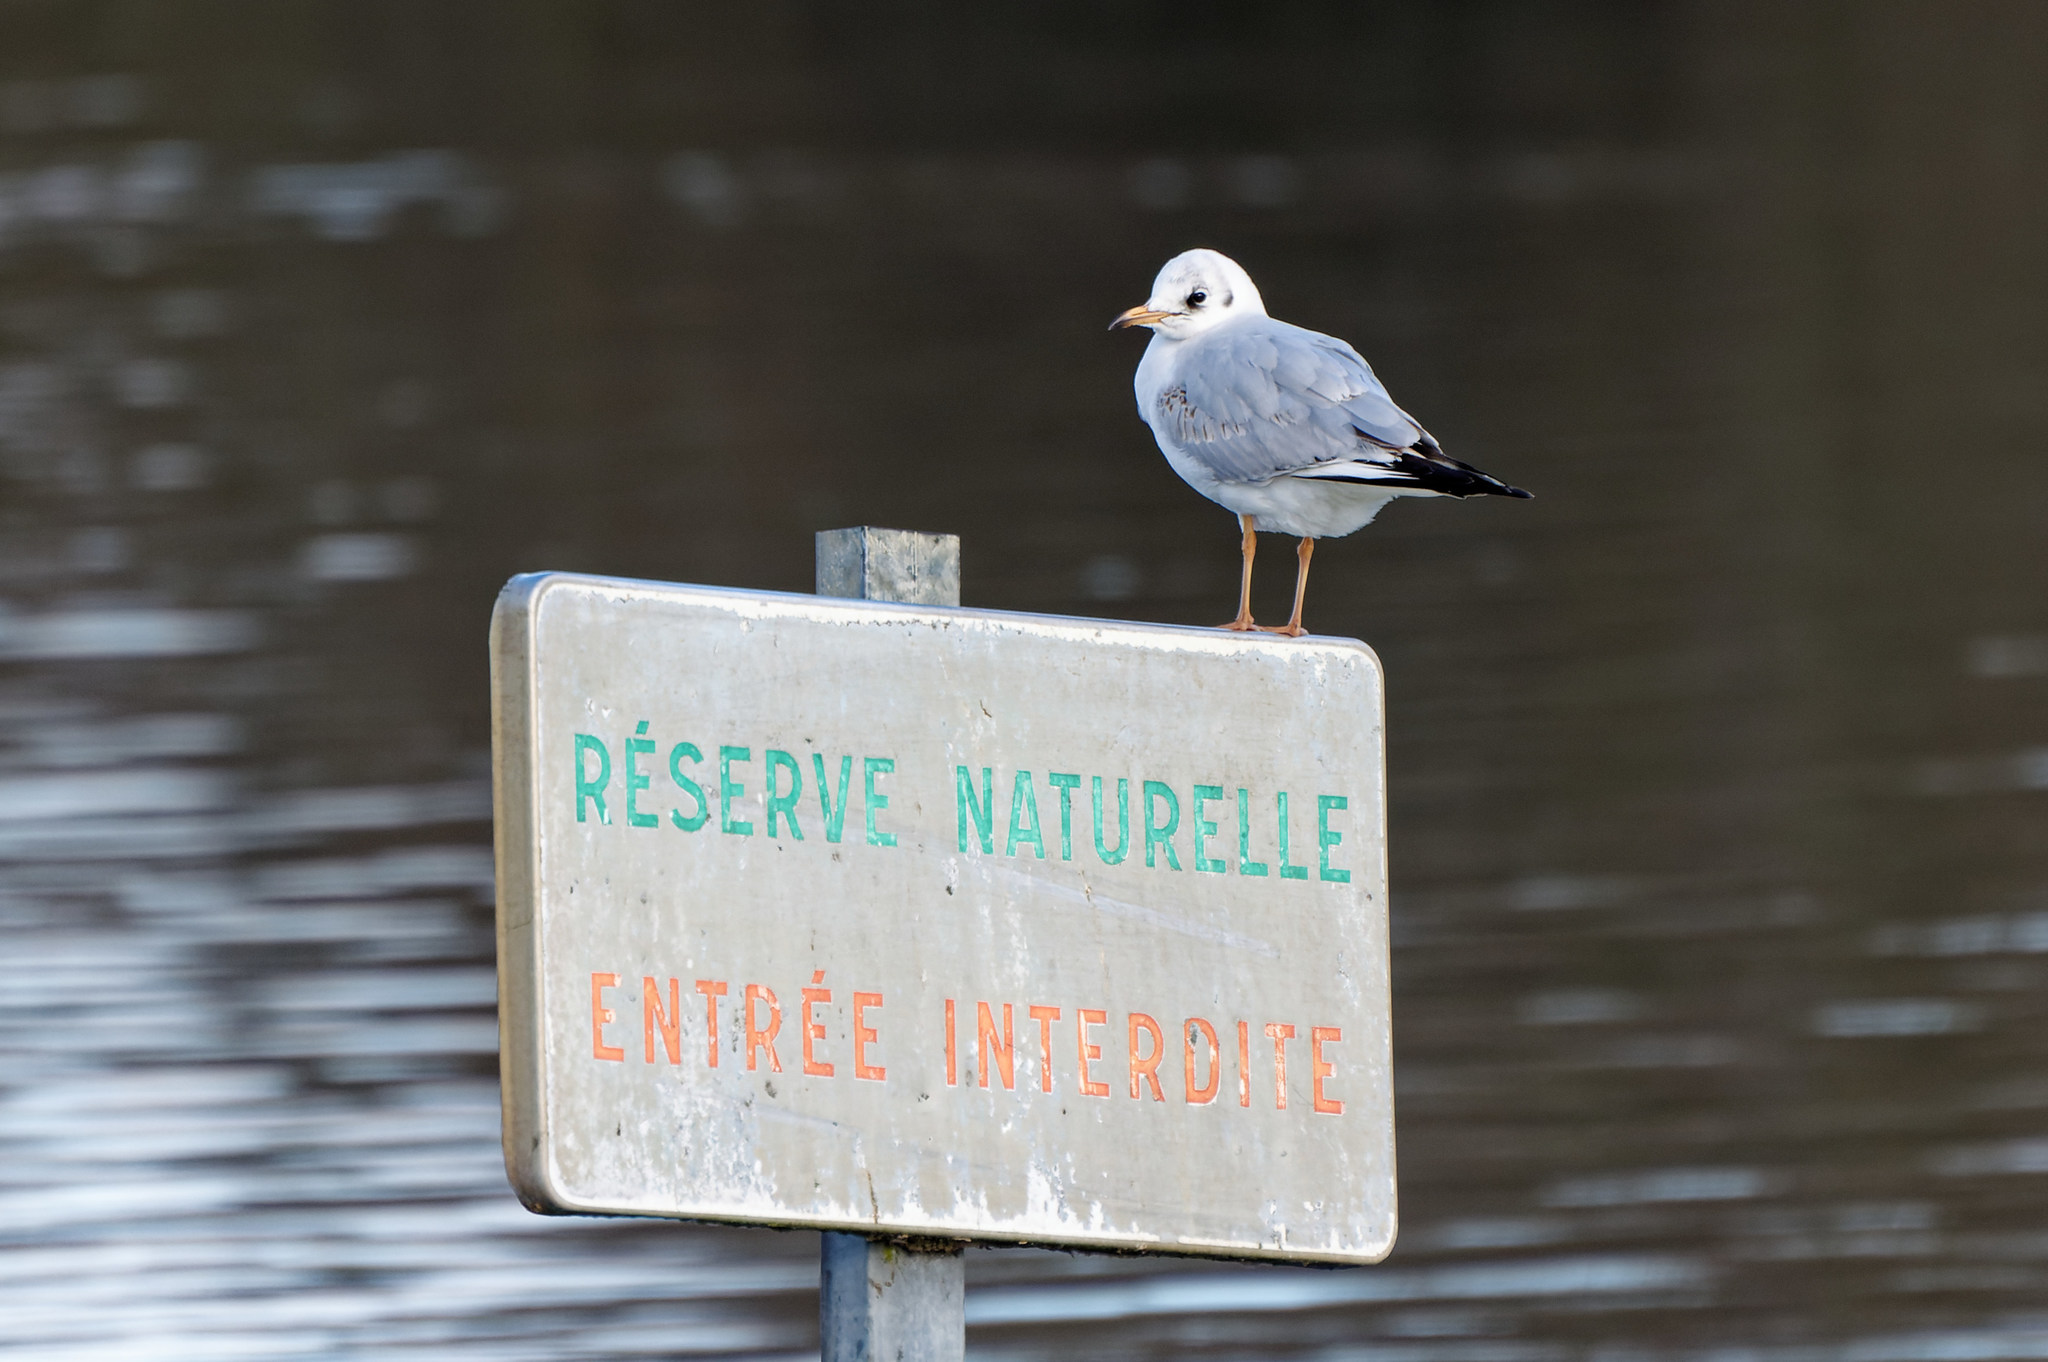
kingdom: Animalia
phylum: Chordata
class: Aves
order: Charadriiformes
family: Laridae
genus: Chroicocephalus
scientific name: Chroicocephalus ridibundus
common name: Black-headed gull
